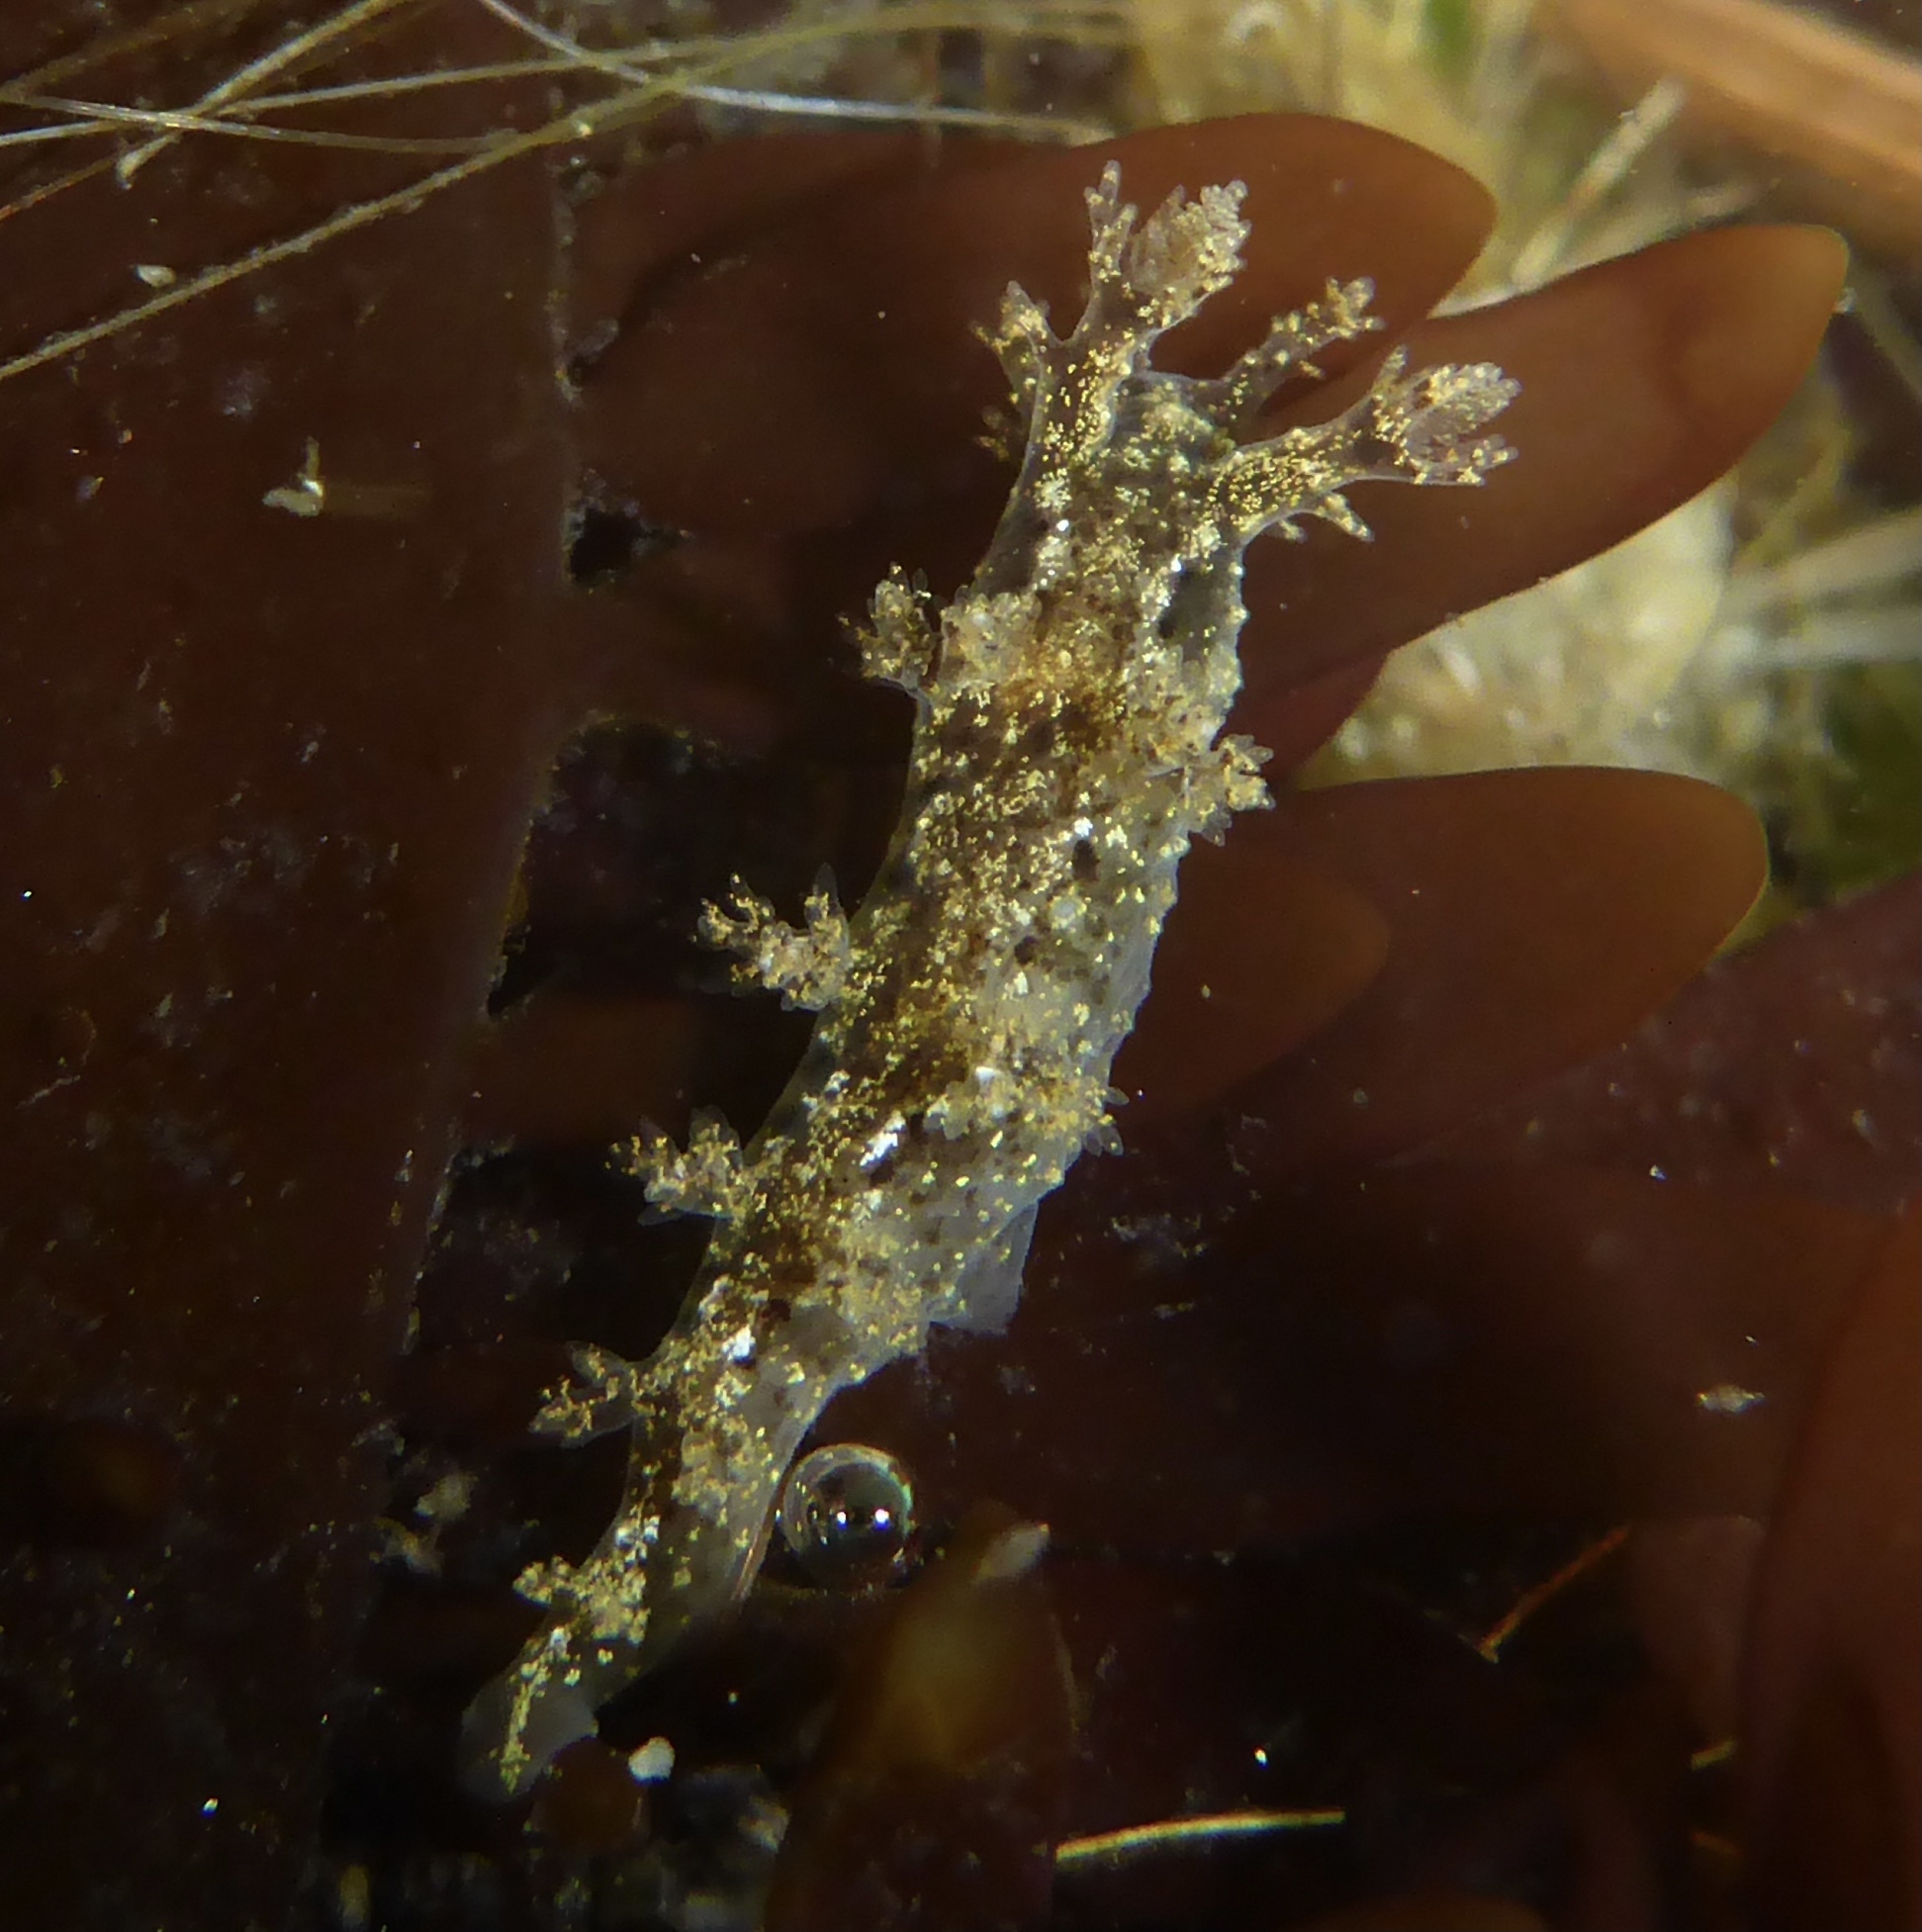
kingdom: Animalia
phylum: Mollusca
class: Gastropoda
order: Nudibranchia
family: Dendronotidae
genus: Dendronotus
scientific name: Dendronotus venustus
